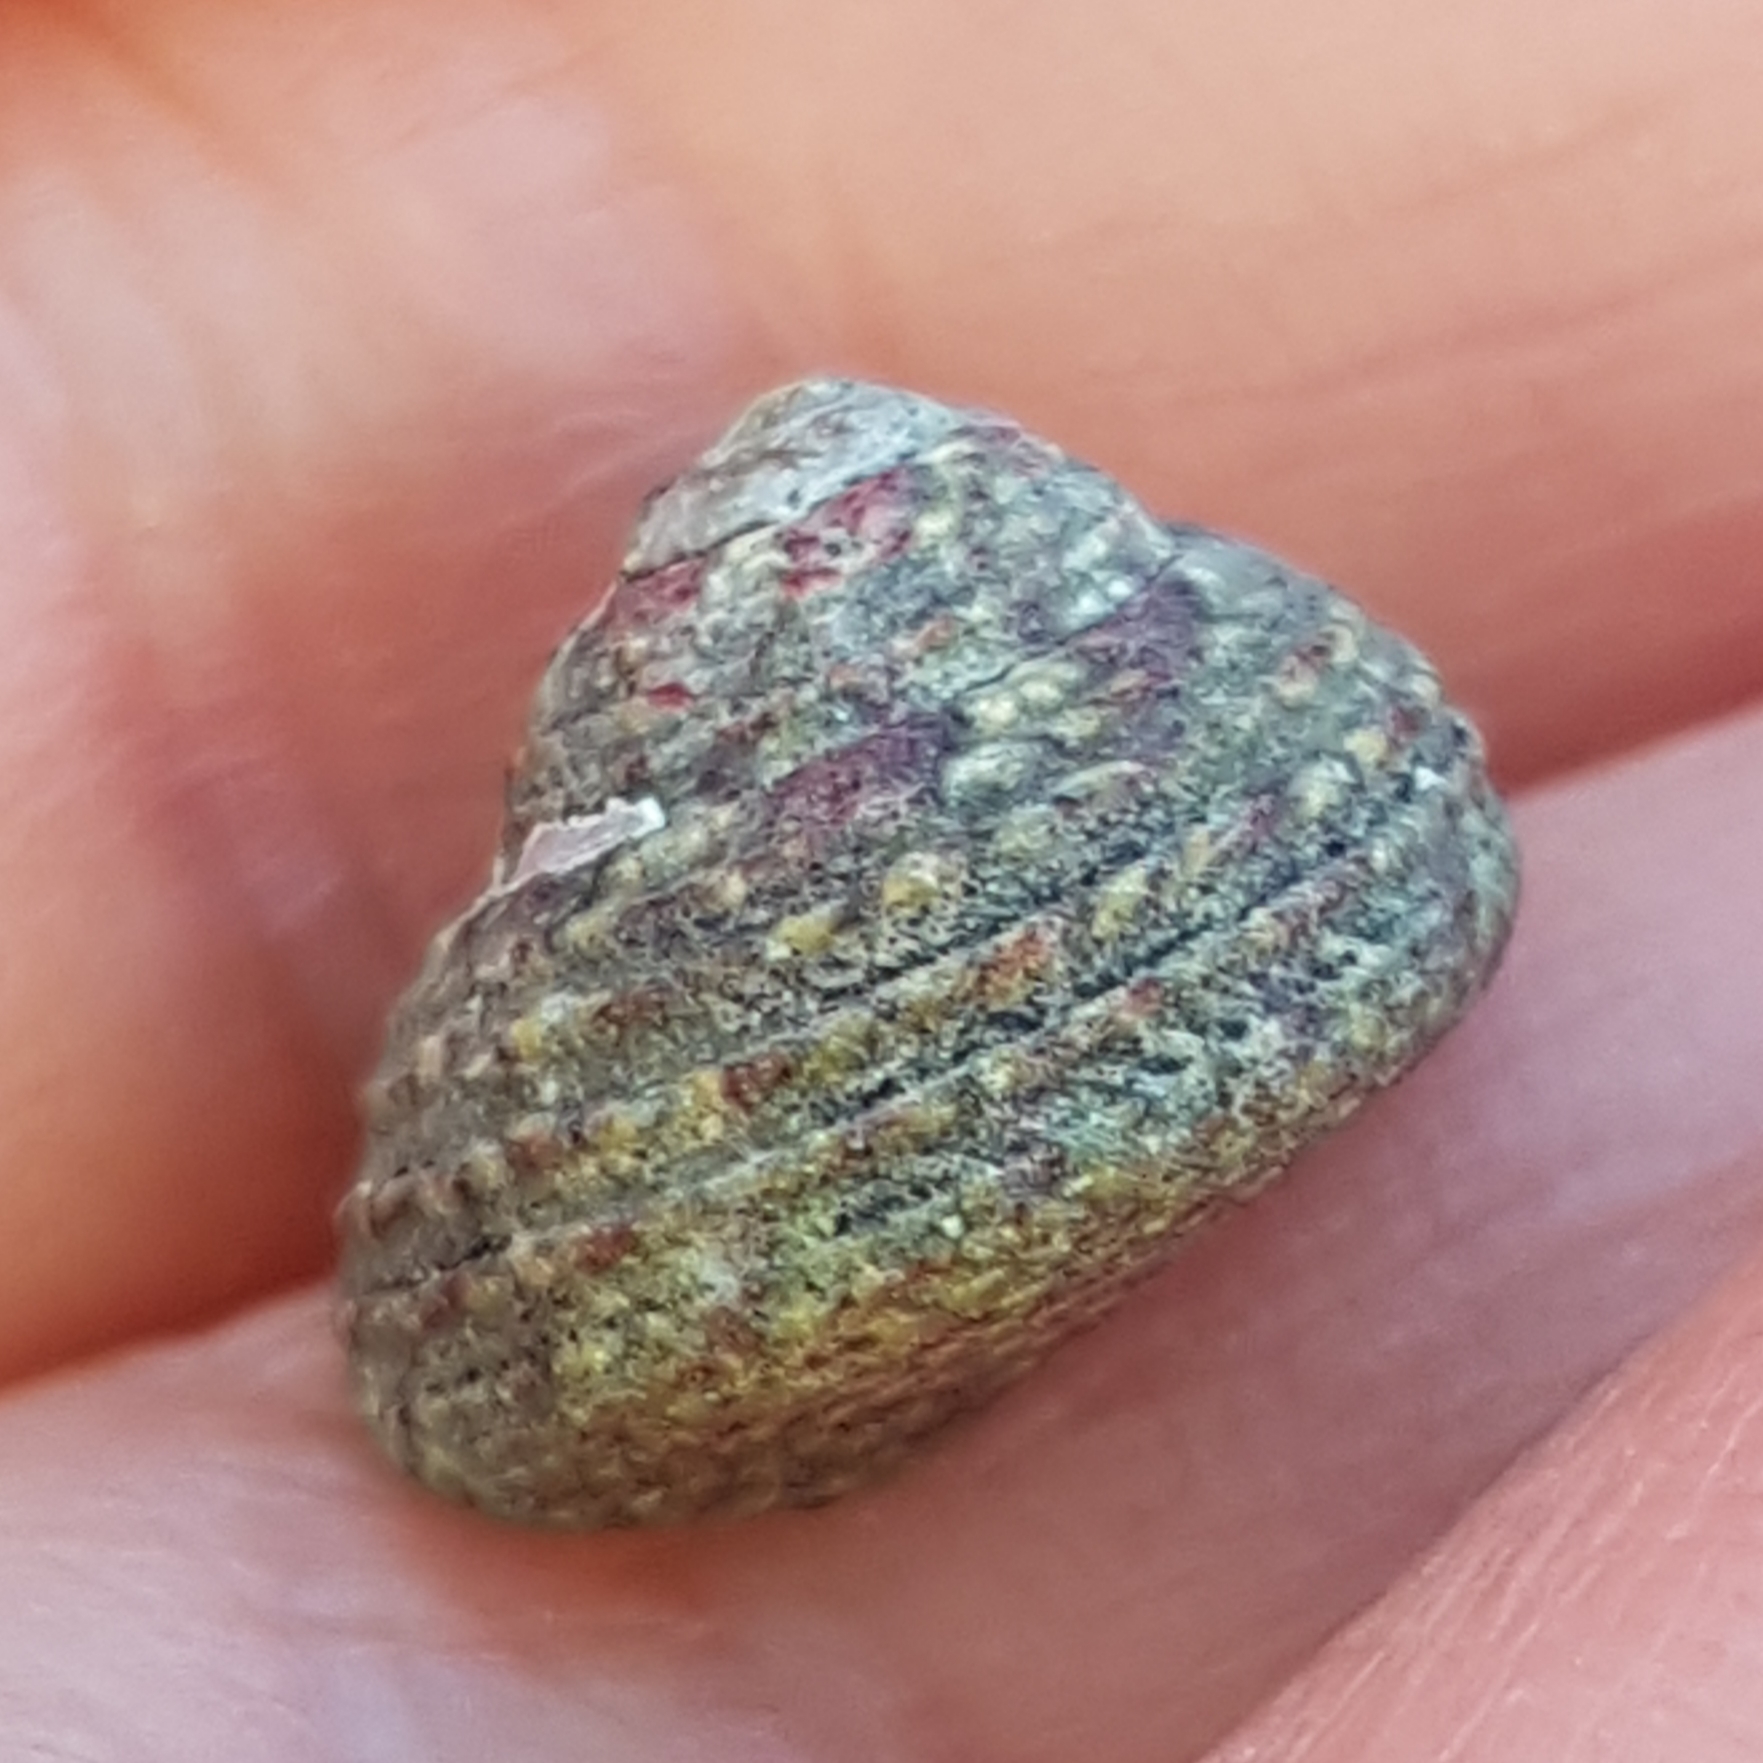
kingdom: Animalia
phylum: Mollusca
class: Gastropoda
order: Trochida
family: Trochidae
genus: Steromphala
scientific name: Steromphala pennanti
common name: Pennant's top shell
